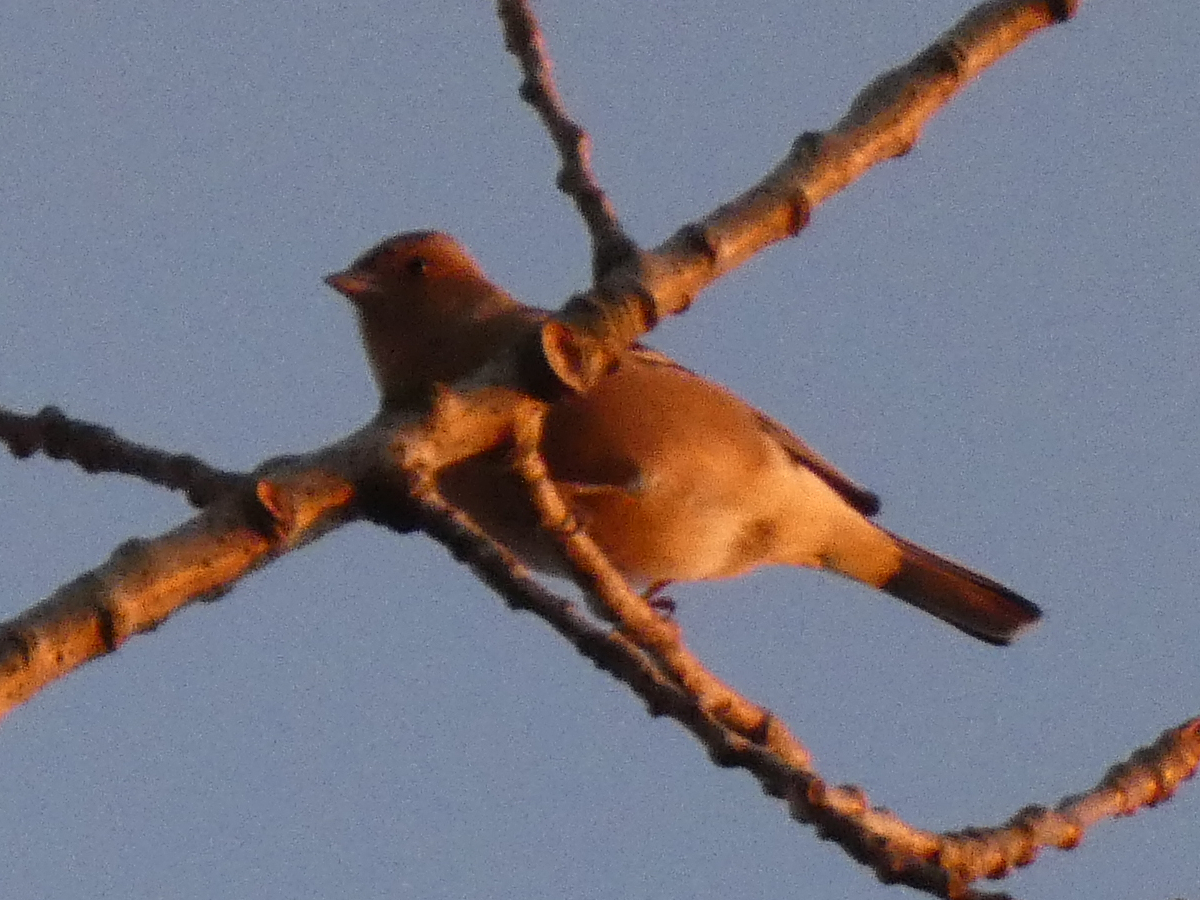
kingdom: Animalia
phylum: Chordata
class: Aves
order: Passeriformes
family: Fringillidae
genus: Fringilla
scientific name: Fringilla coelebs
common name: Common chaffinch
